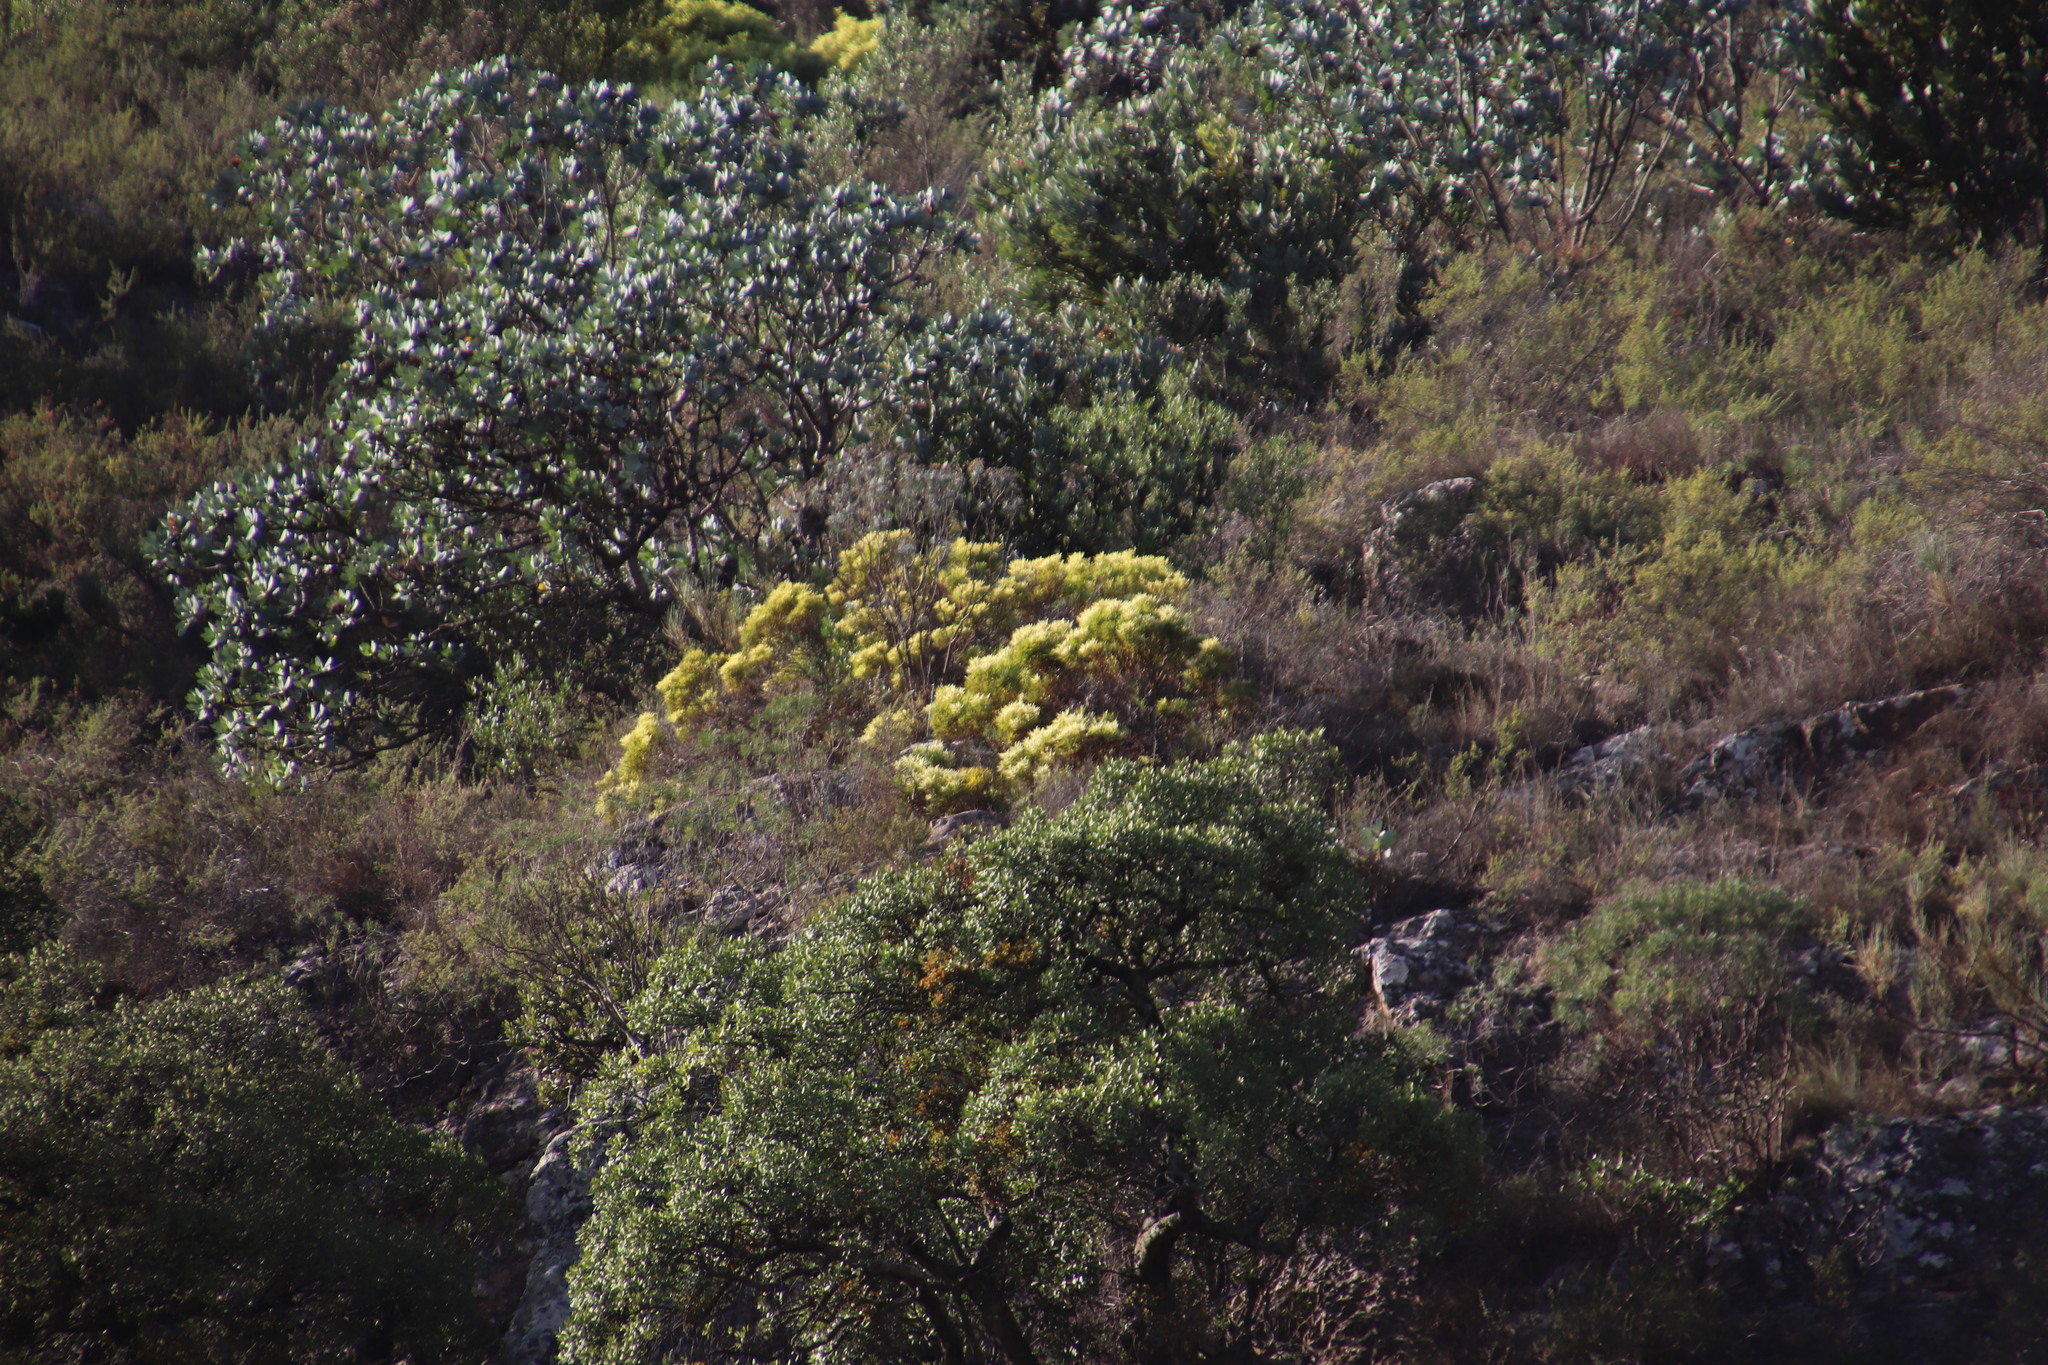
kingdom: Plantae
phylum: Tracheophyta
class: Magnoliopsida
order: Proteales
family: Proteaceae
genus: Leucadendron
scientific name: Leucadendron salignum
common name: Common sunshine conebush
